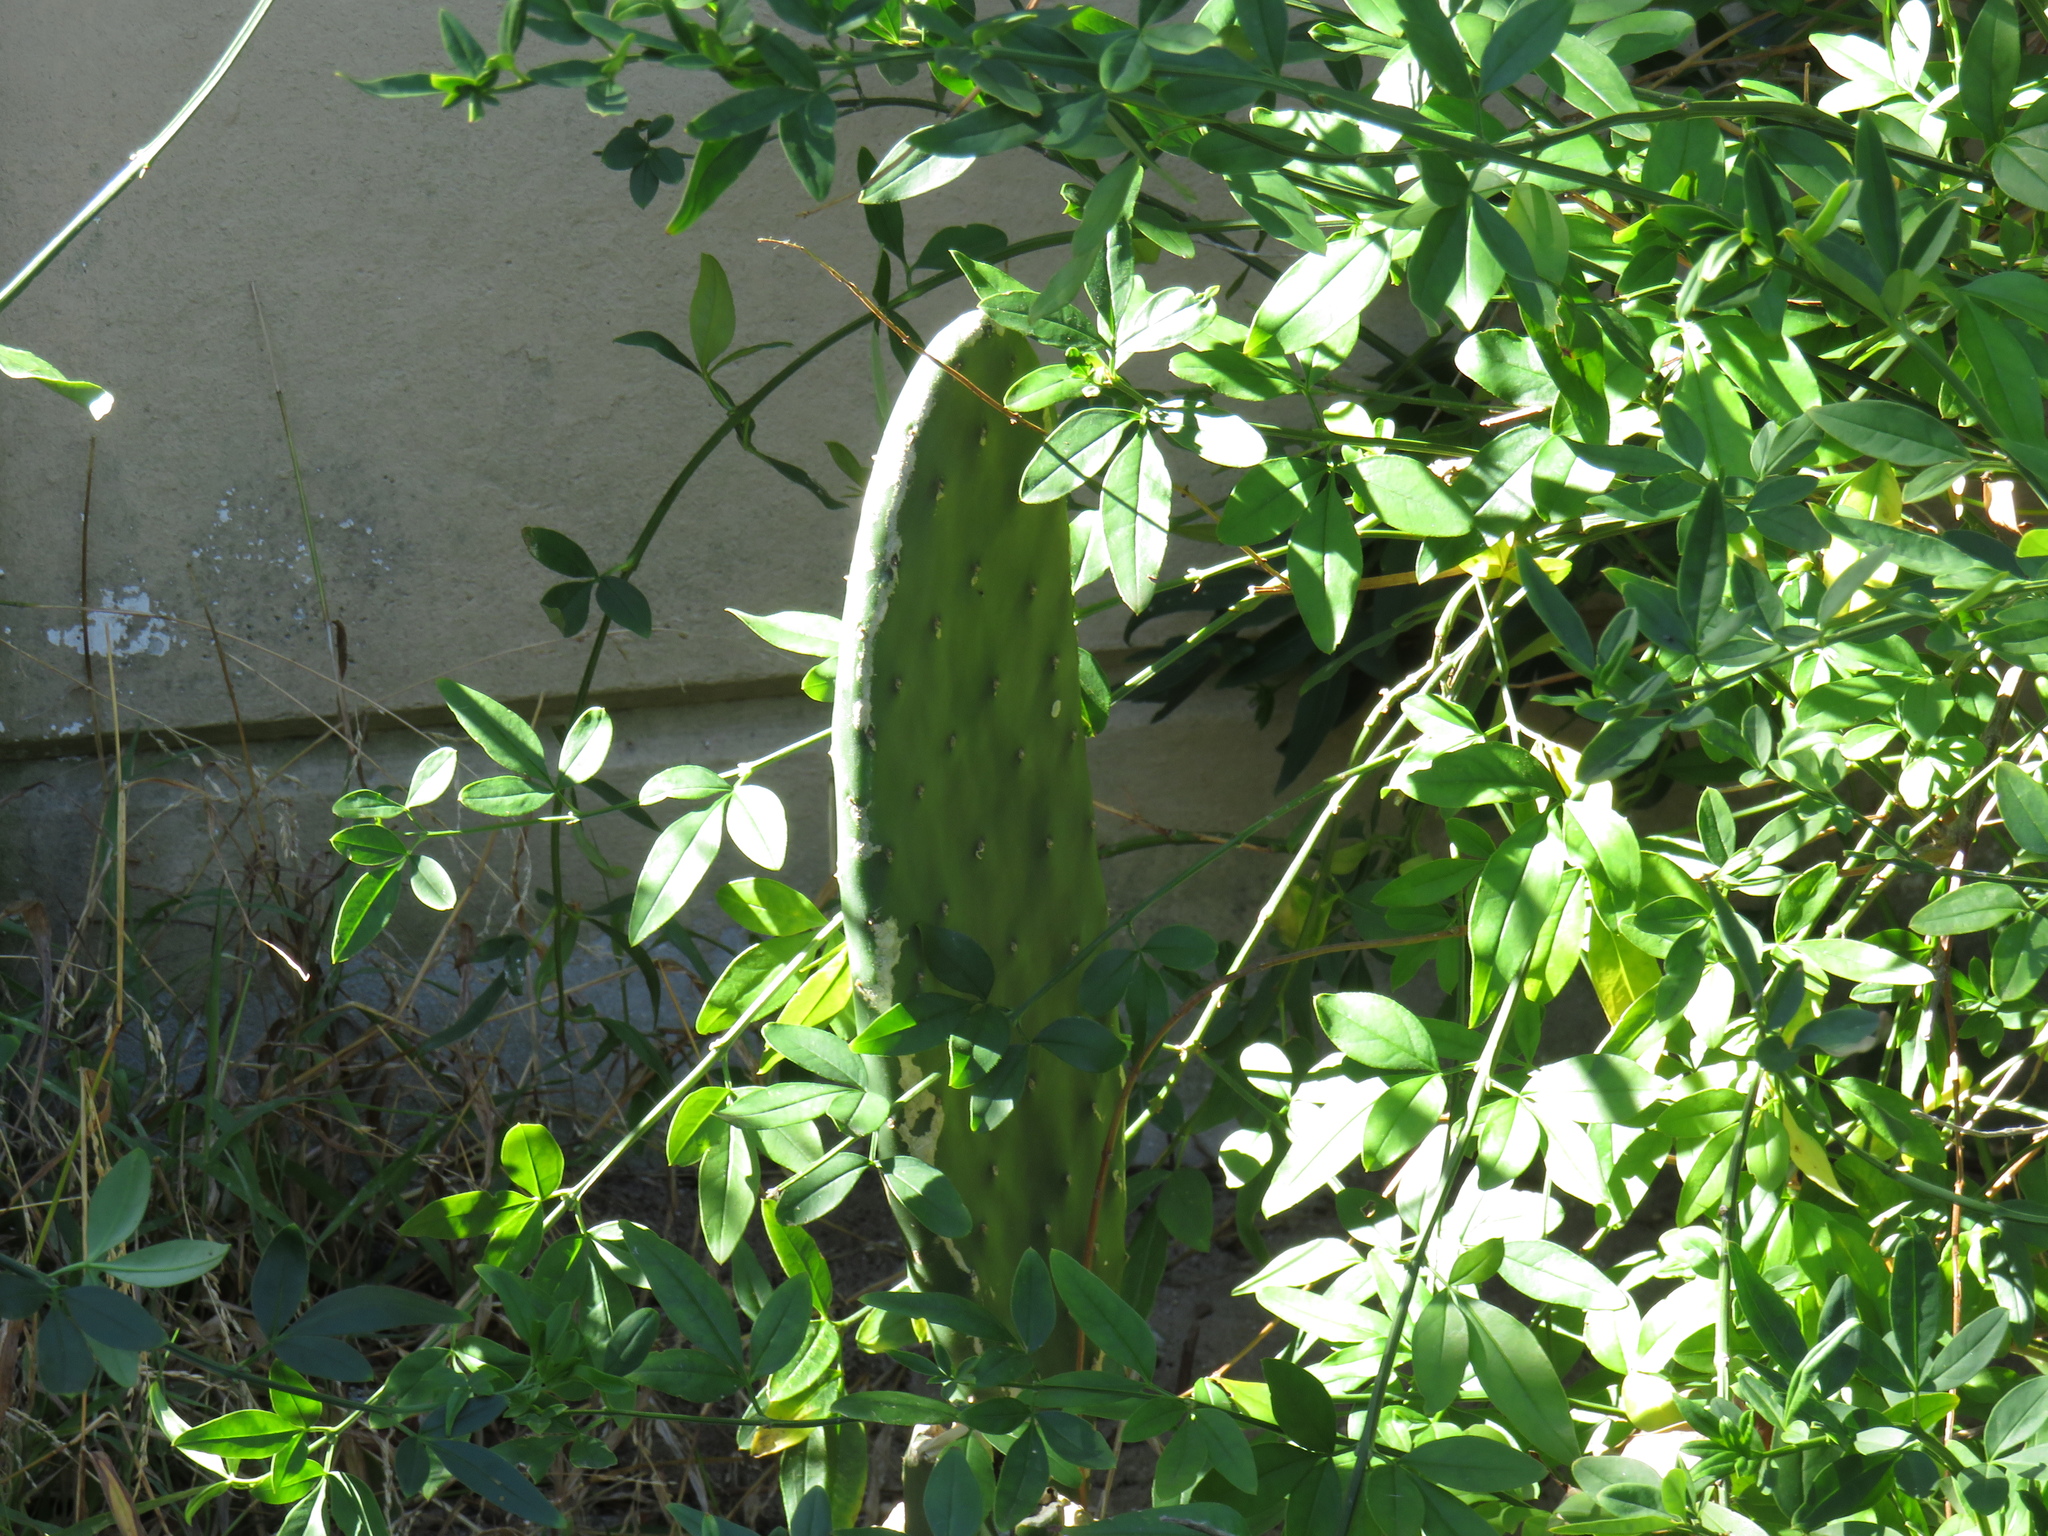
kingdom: Plantae
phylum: Tracheophyta
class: Magnoliopsida
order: Caryophyllales
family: Cactaceae
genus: Opuntia
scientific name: Opuntia ficus-indica
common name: Barbary fig
